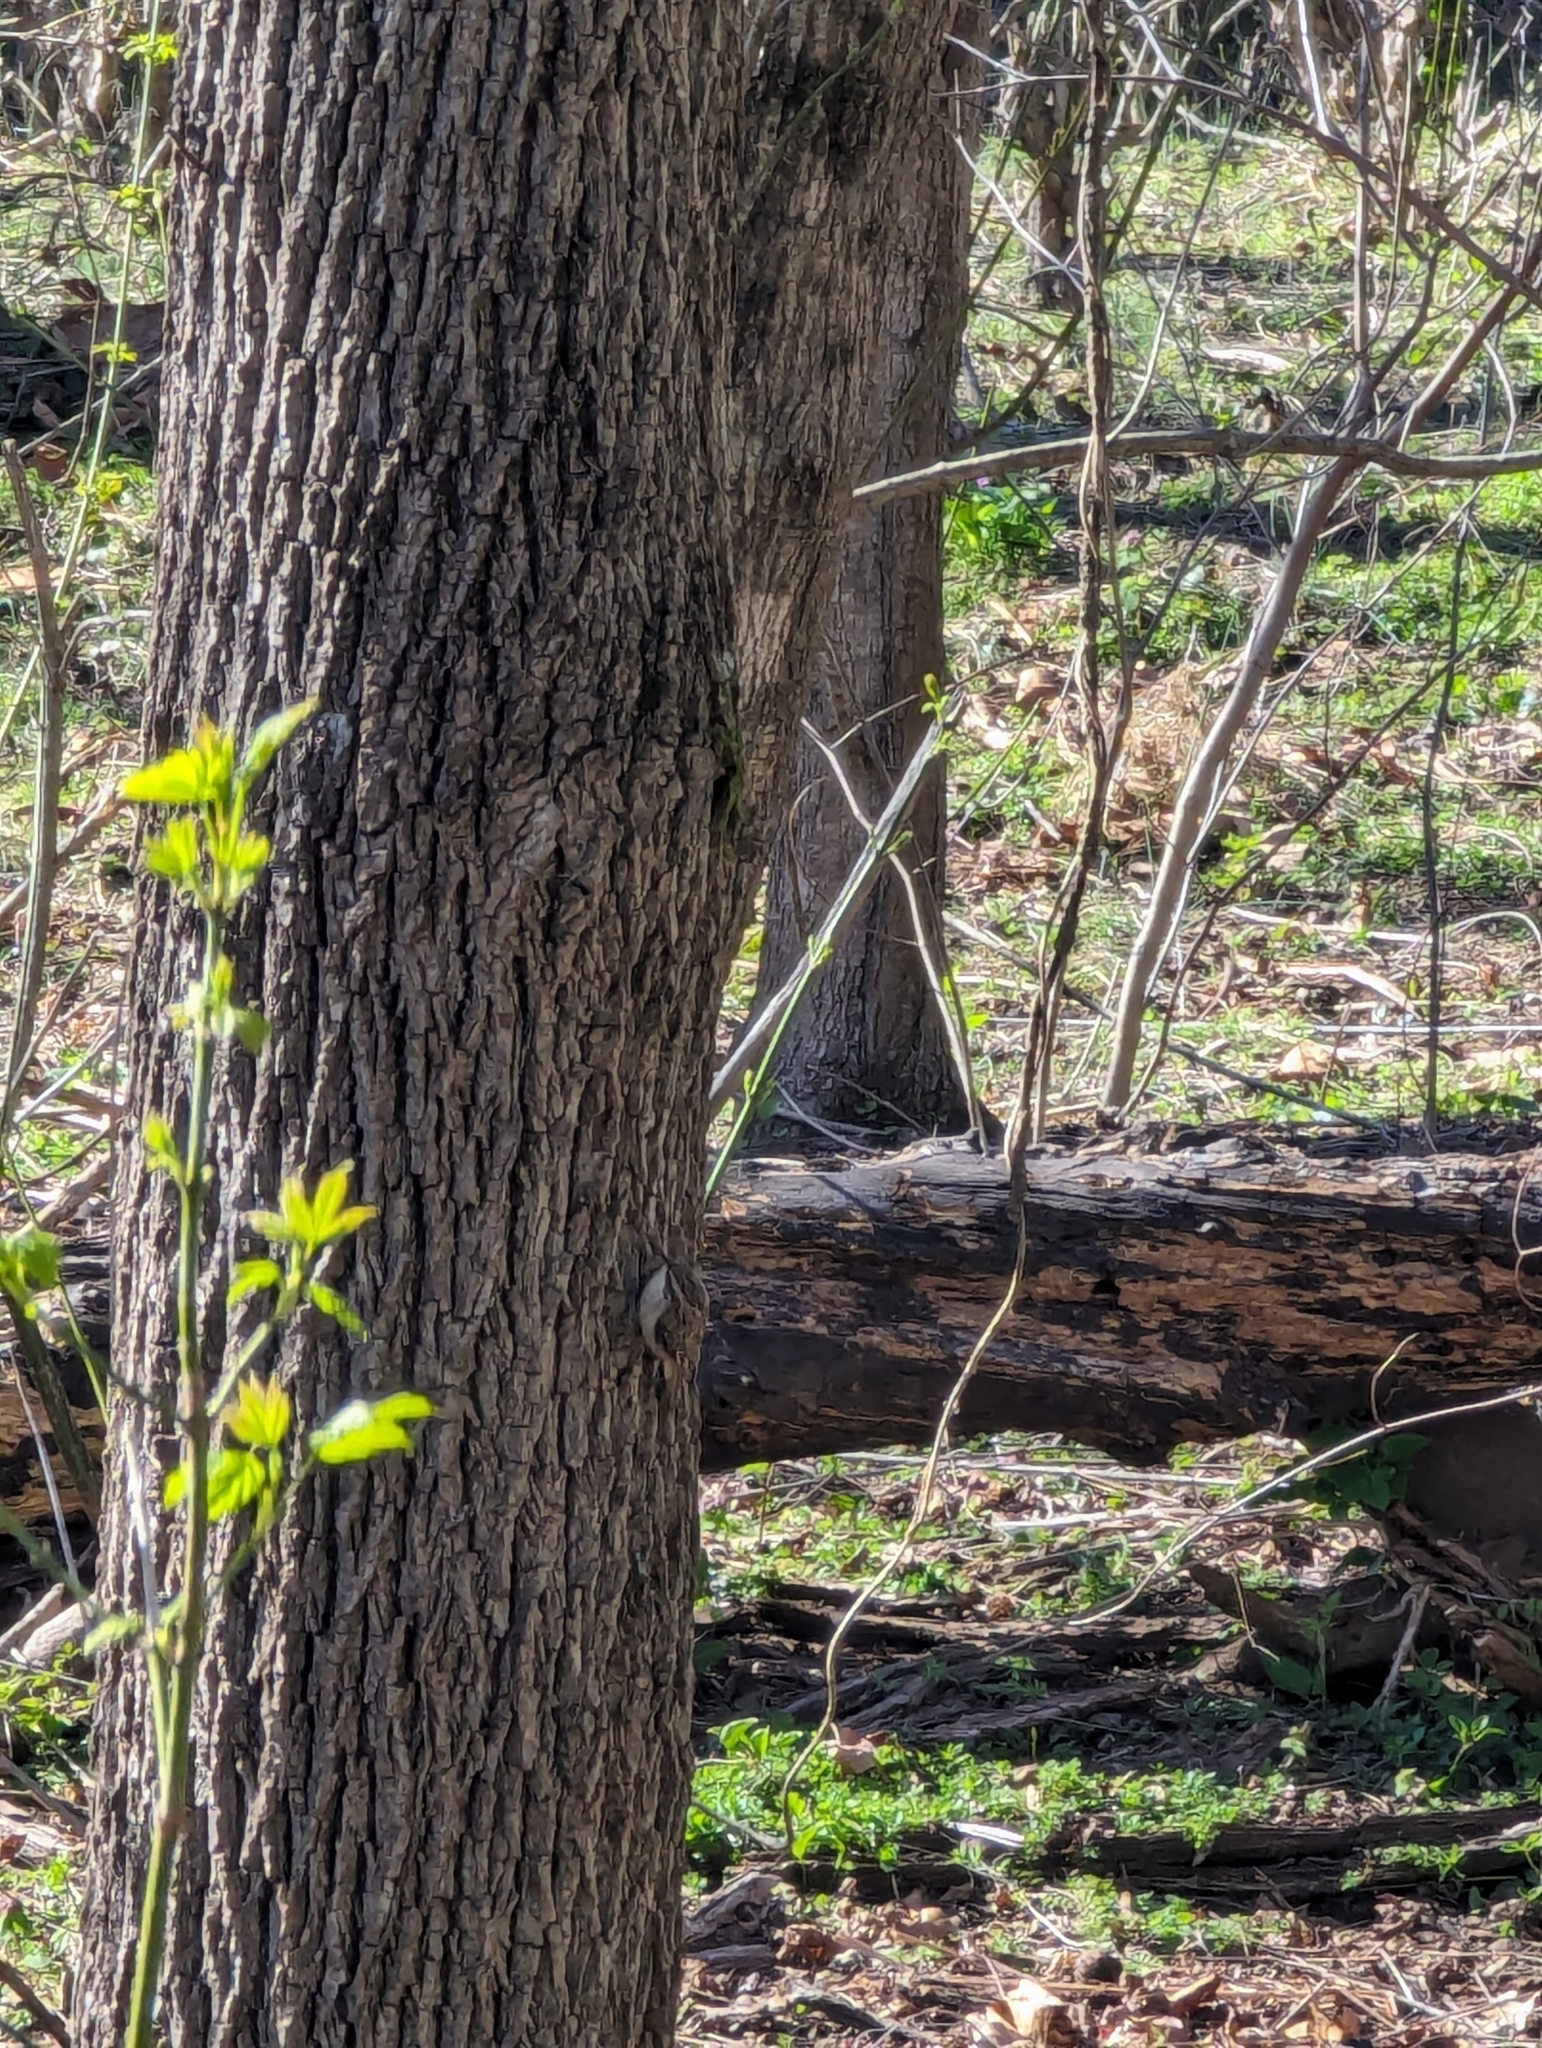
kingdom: Animalia
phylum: Chordata
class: Aves
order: Passeriformes
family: Certhiidae
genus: Certhia
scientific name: Certhia americana
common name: Brown creeper
